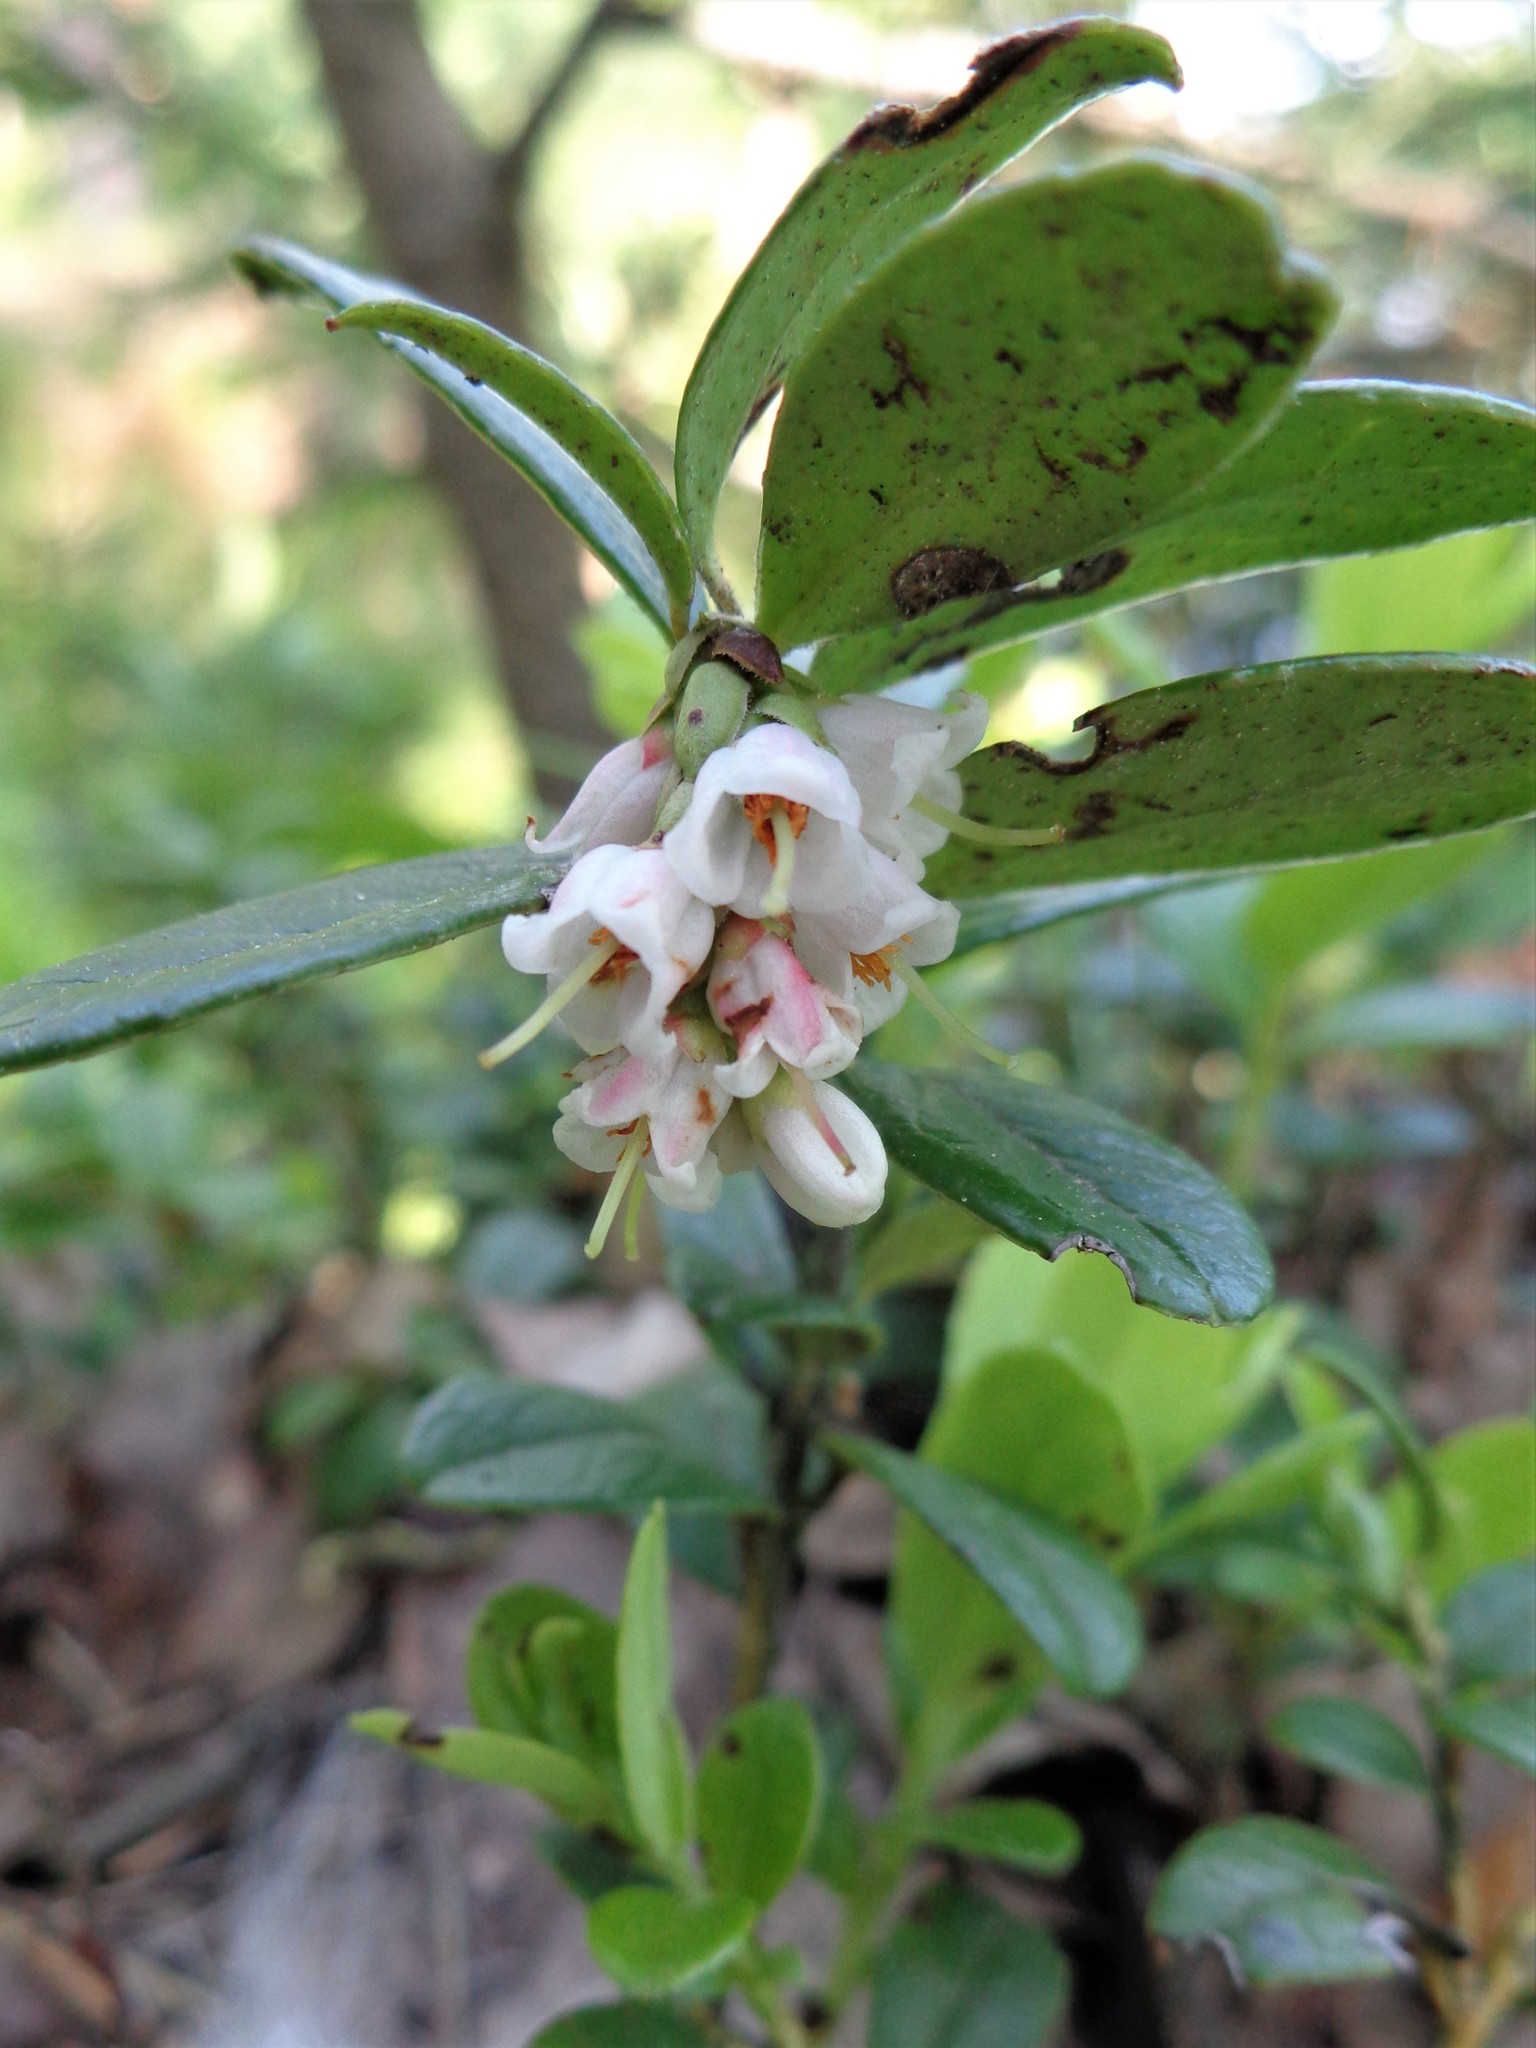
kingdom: Plantae
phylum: Tracheophyta
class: Magnoliopsida
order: Ericales
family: Ericaceae
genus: Vaccinium
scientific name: Vaccinium vitis-idaea
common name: Cowberry
